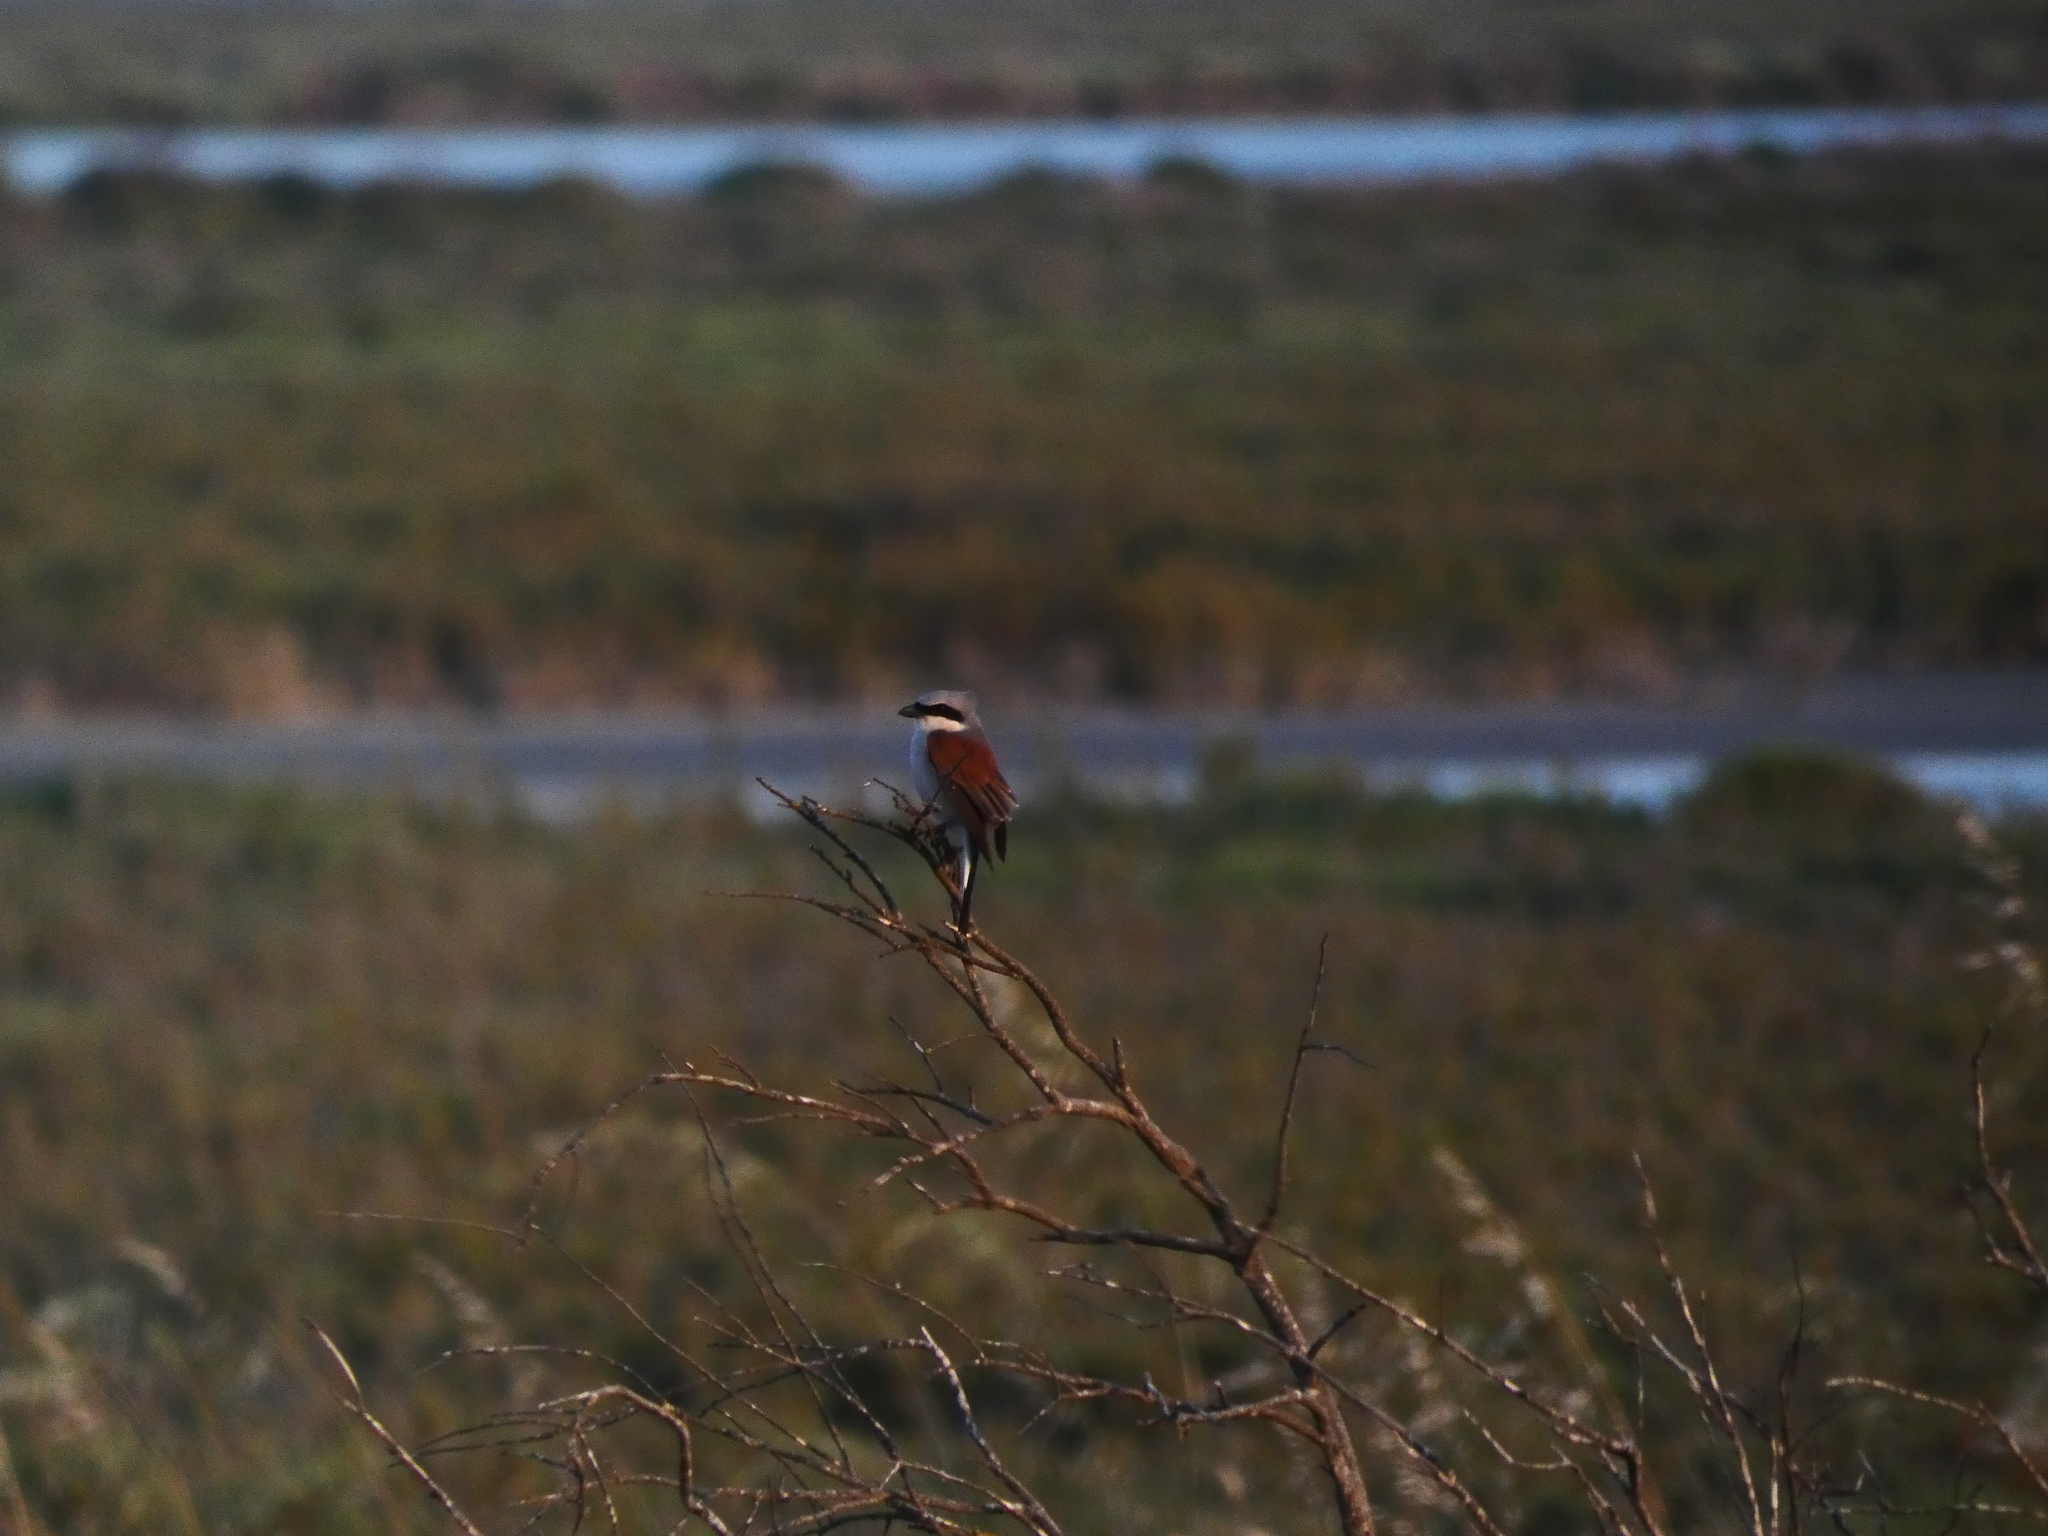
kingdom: Animalia
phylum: Chordata
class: Aves
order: Passeriformes
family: Laniidae
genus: Lanius
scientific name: Lanius collurio
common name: Red-backed shrike
